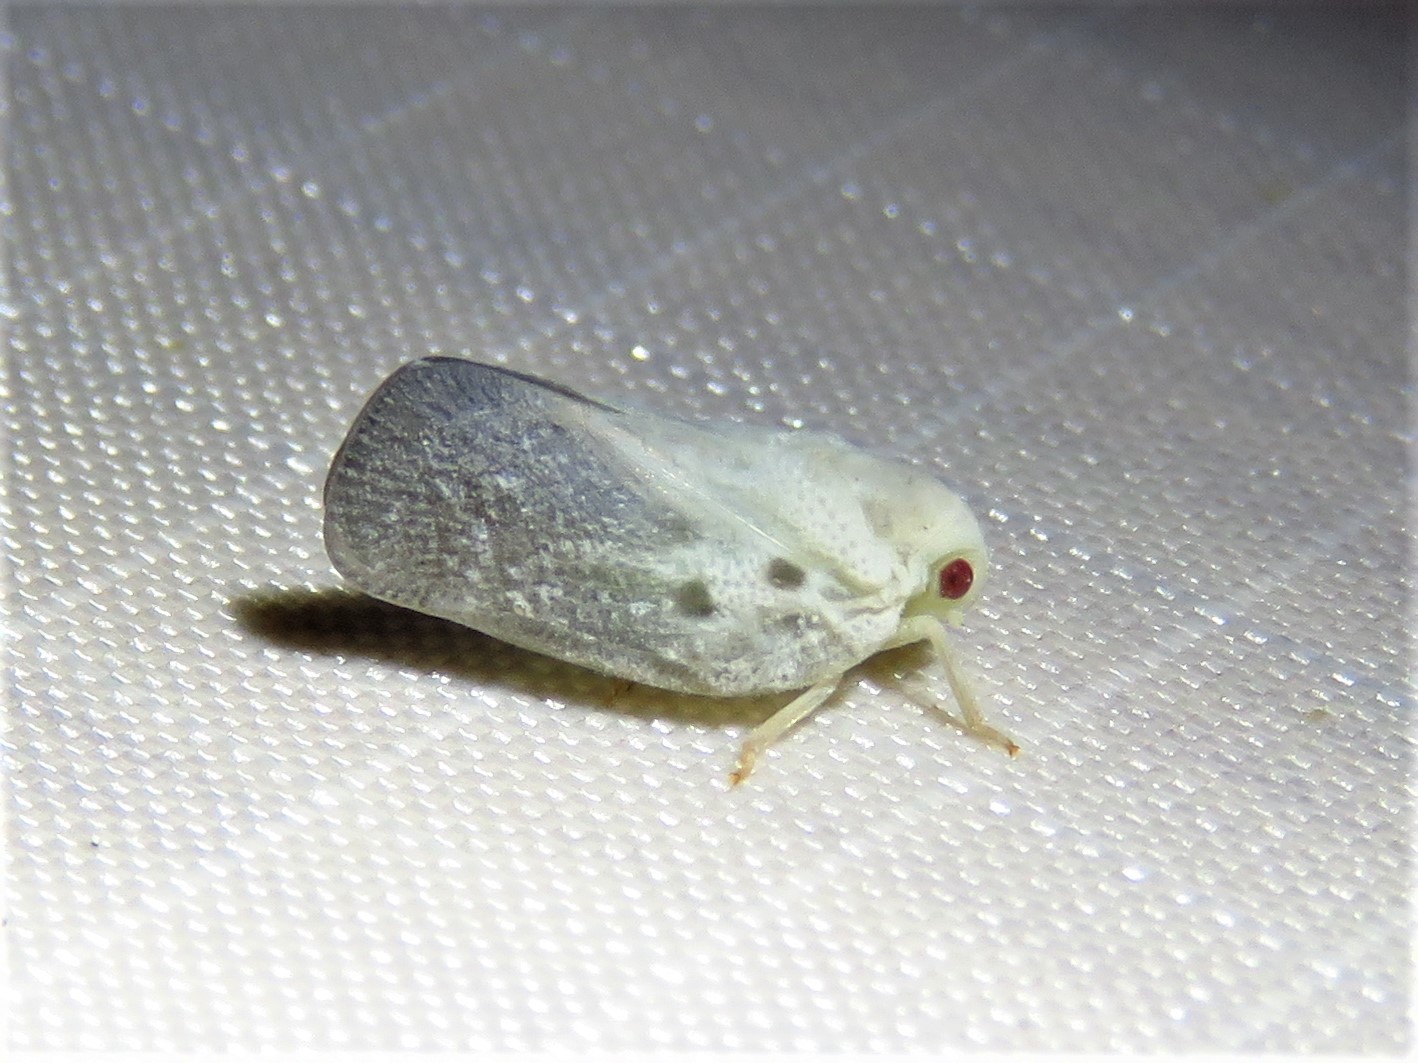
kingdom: Animalia
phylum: Arthropoda
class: Insecta
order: Hemiptera
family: Flatidae
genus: Metcalfa
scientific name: Metcalfa pruinosa
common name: Citrus flatid planthopper
